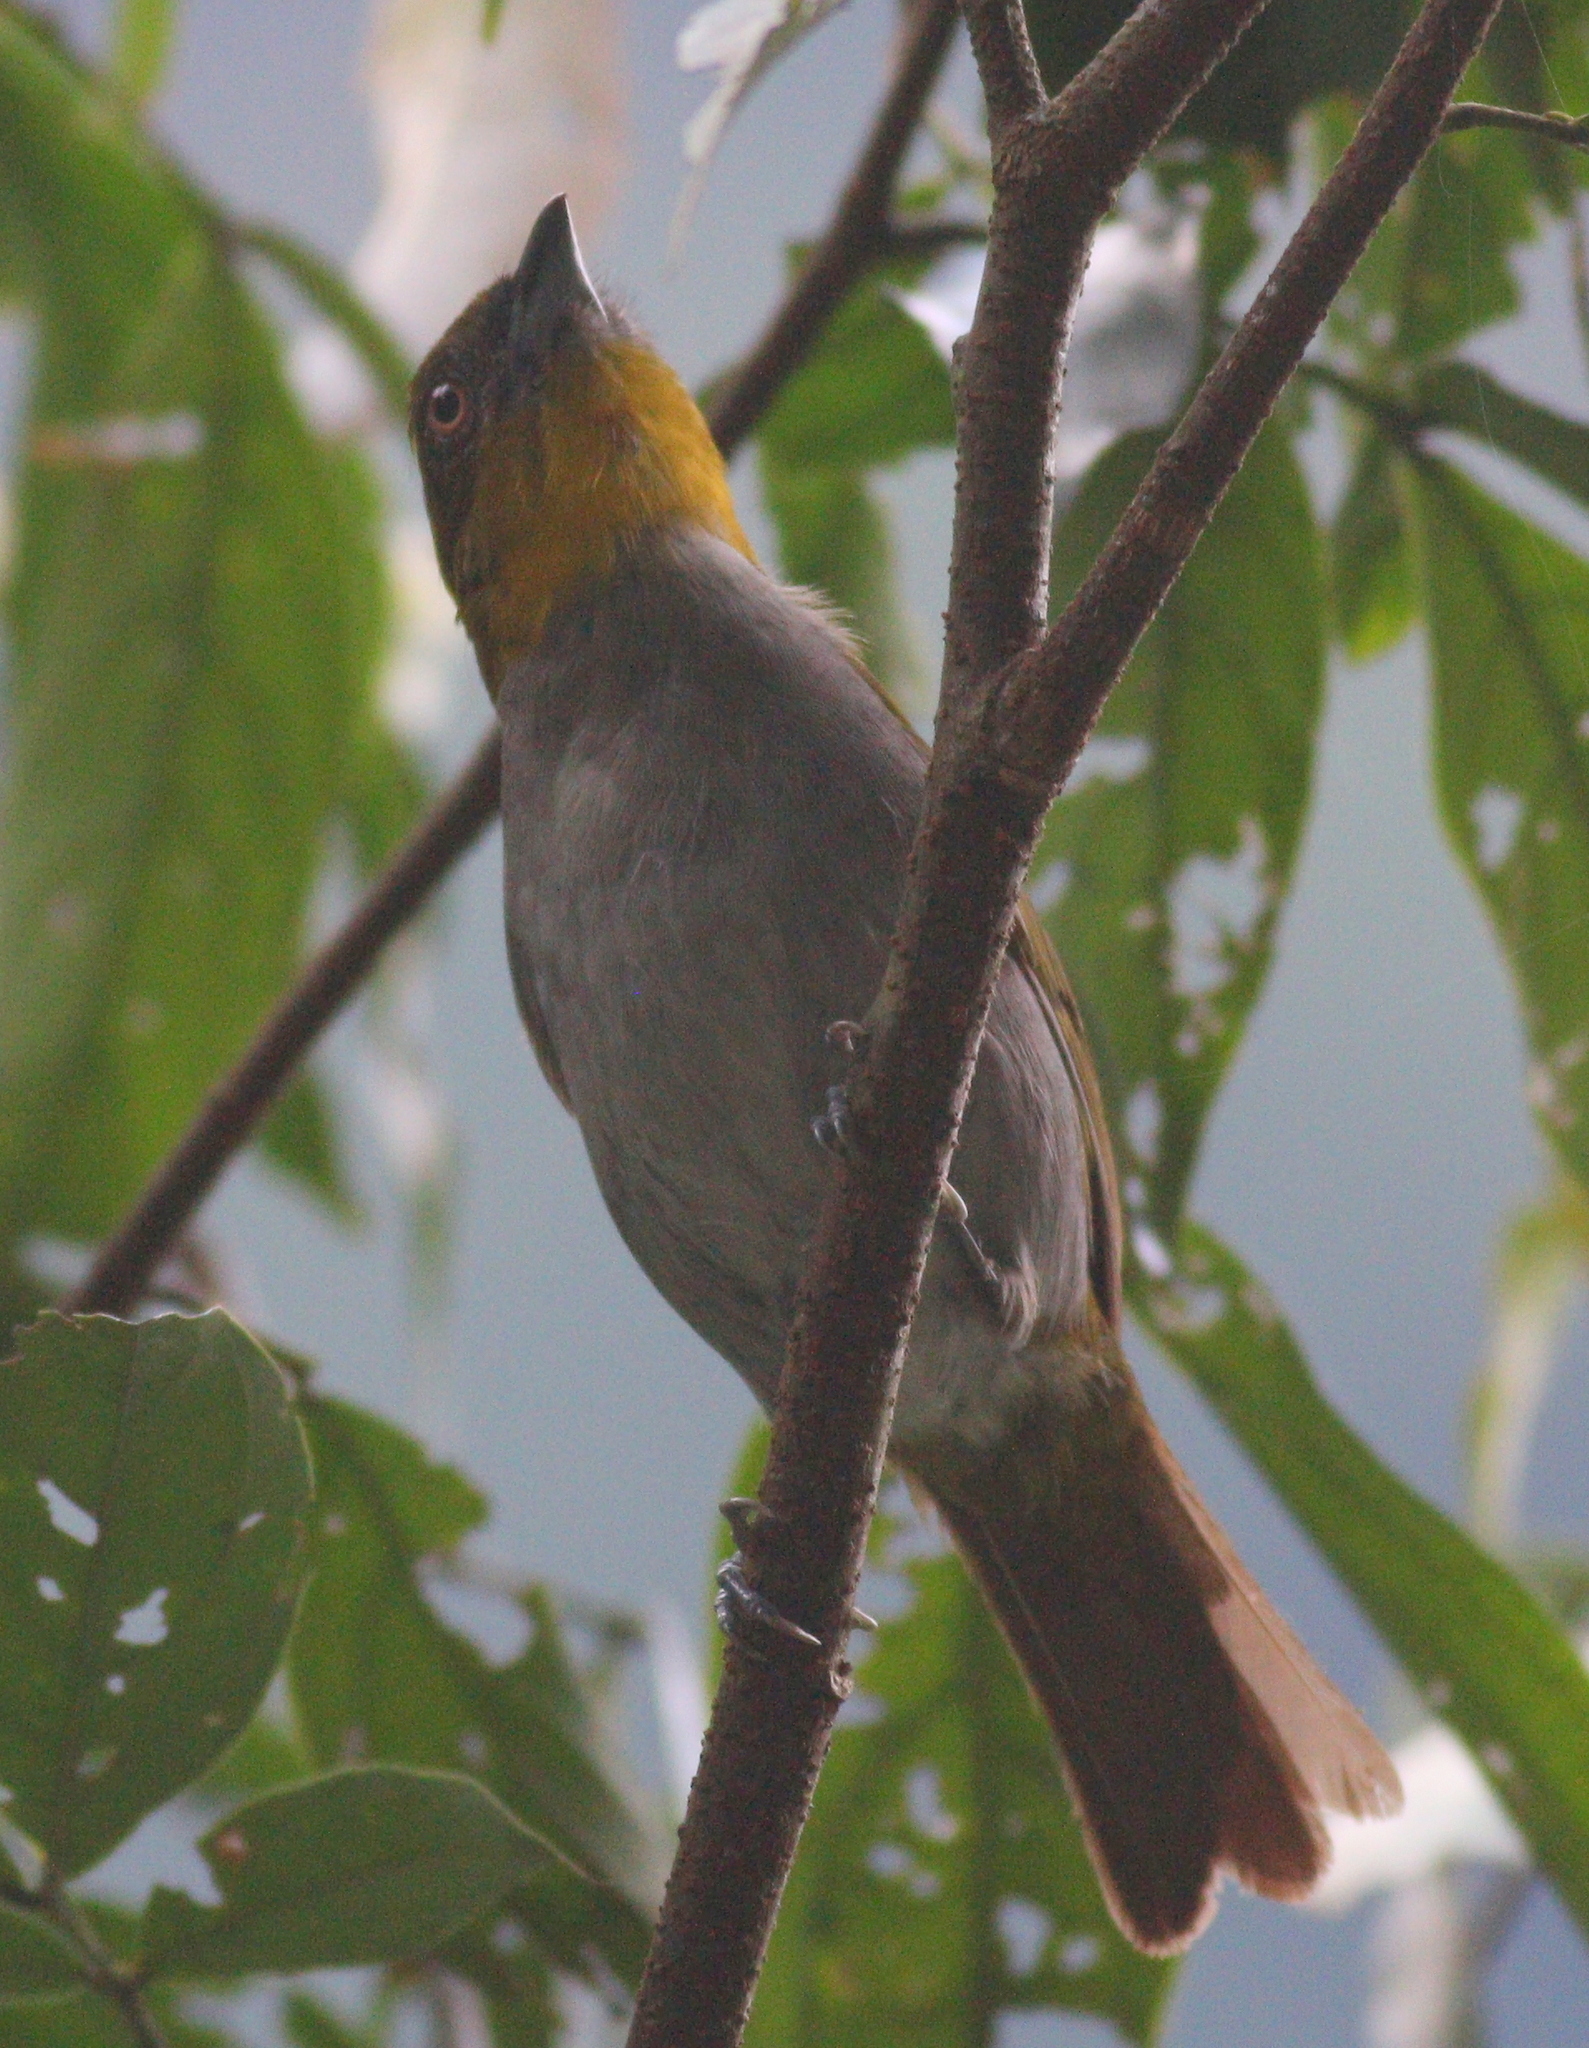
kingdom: Animalia
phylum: Chordata
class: Aves
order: Passeriformes
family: Passerellidae
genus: Chlorospingus
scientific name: Chlorospingus flavigularis
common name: Yellow-throated bush-tanager
